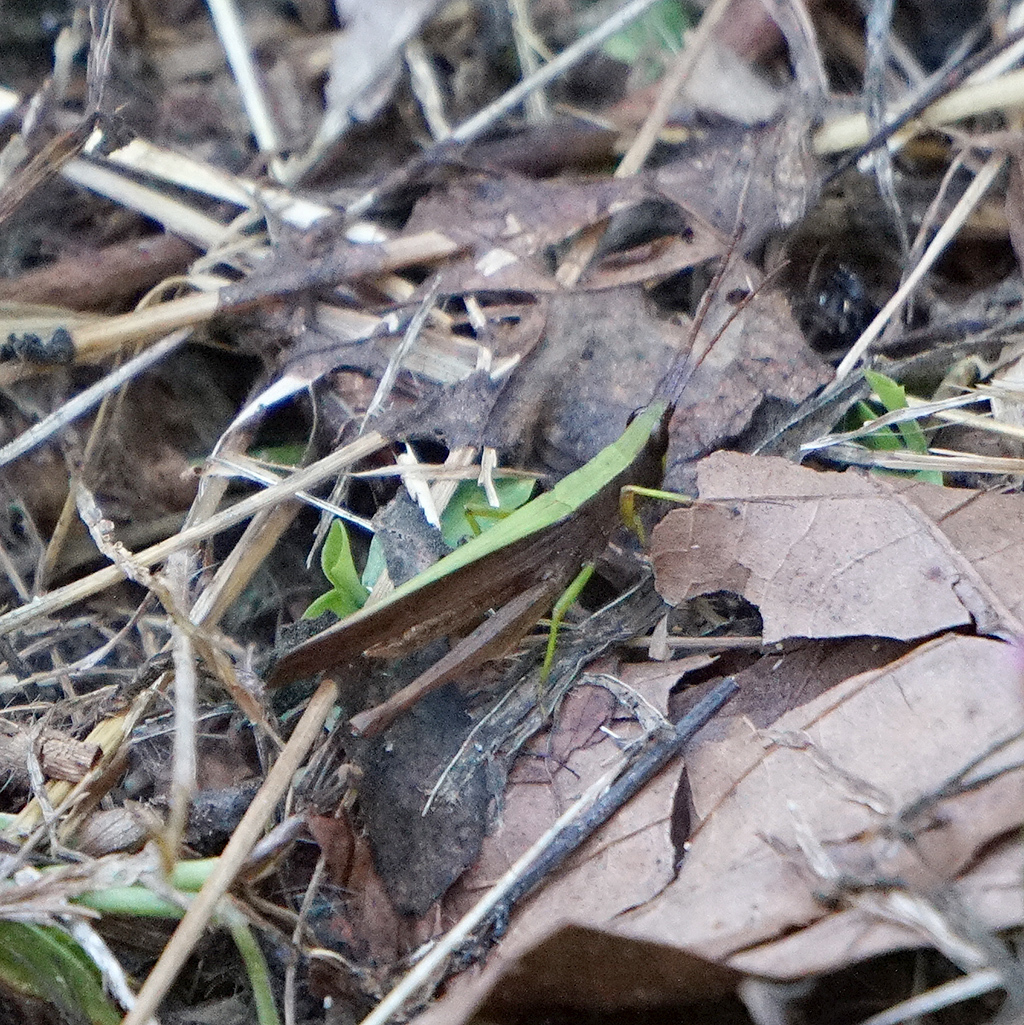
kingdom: Animalia
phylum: Arthropoda
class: Insecta
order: Orthoptera
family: Acrididae
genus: Metaleptea
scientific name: Metaleptea brevicornis
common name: Clipped-wing grasshopper
